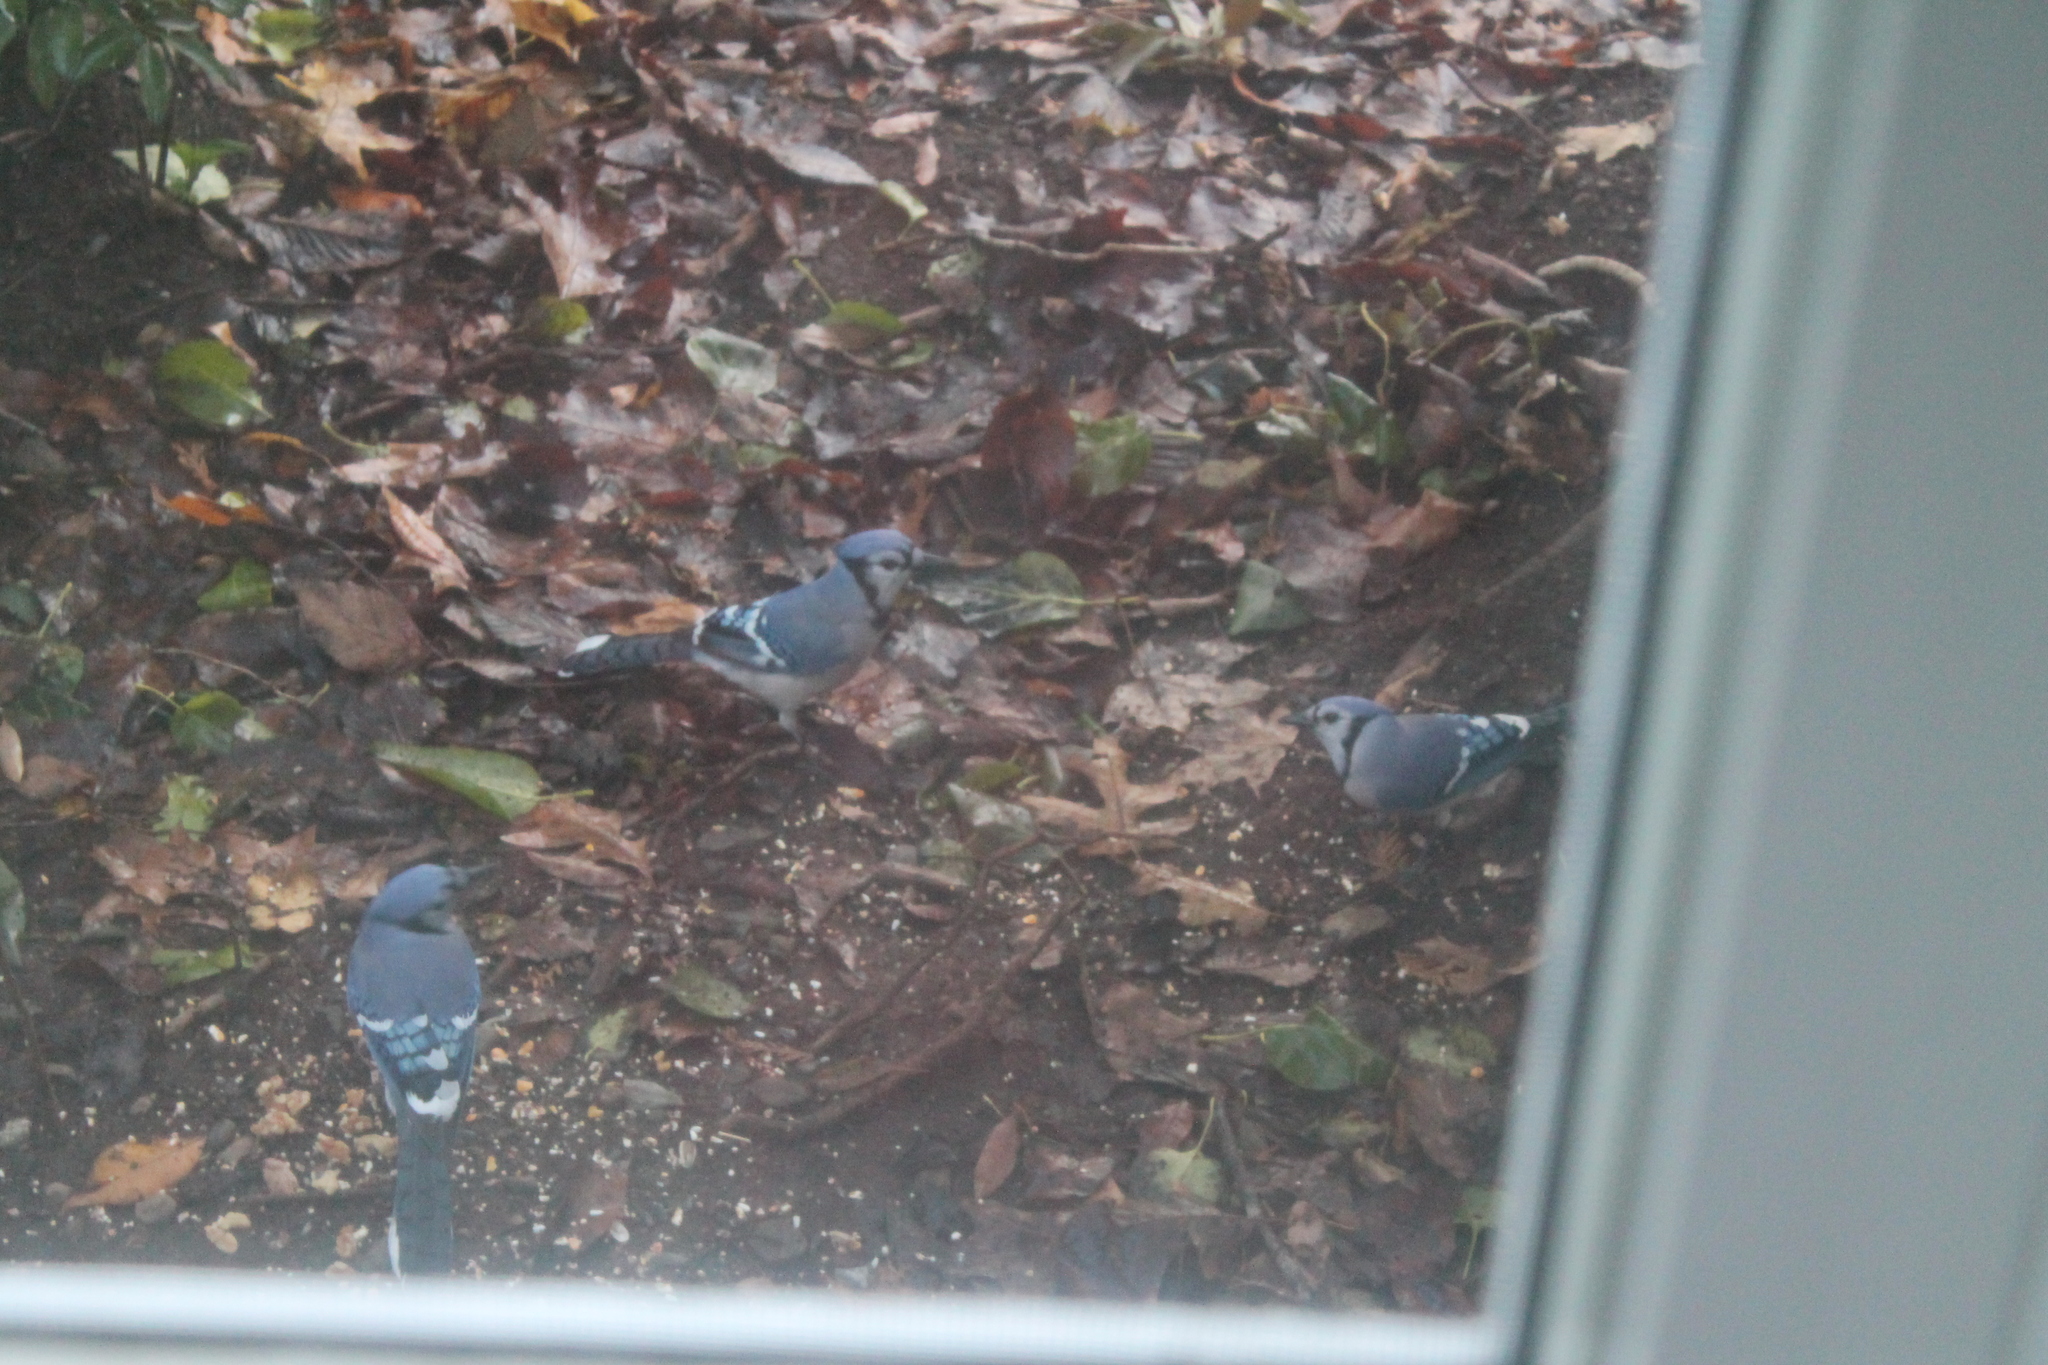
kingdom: Animalia
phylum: Chordata
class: Aves
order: Passeriformes
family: Corvidae
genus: Cyanocitta
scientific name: Cyanocitta cristata
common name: Blue jay
